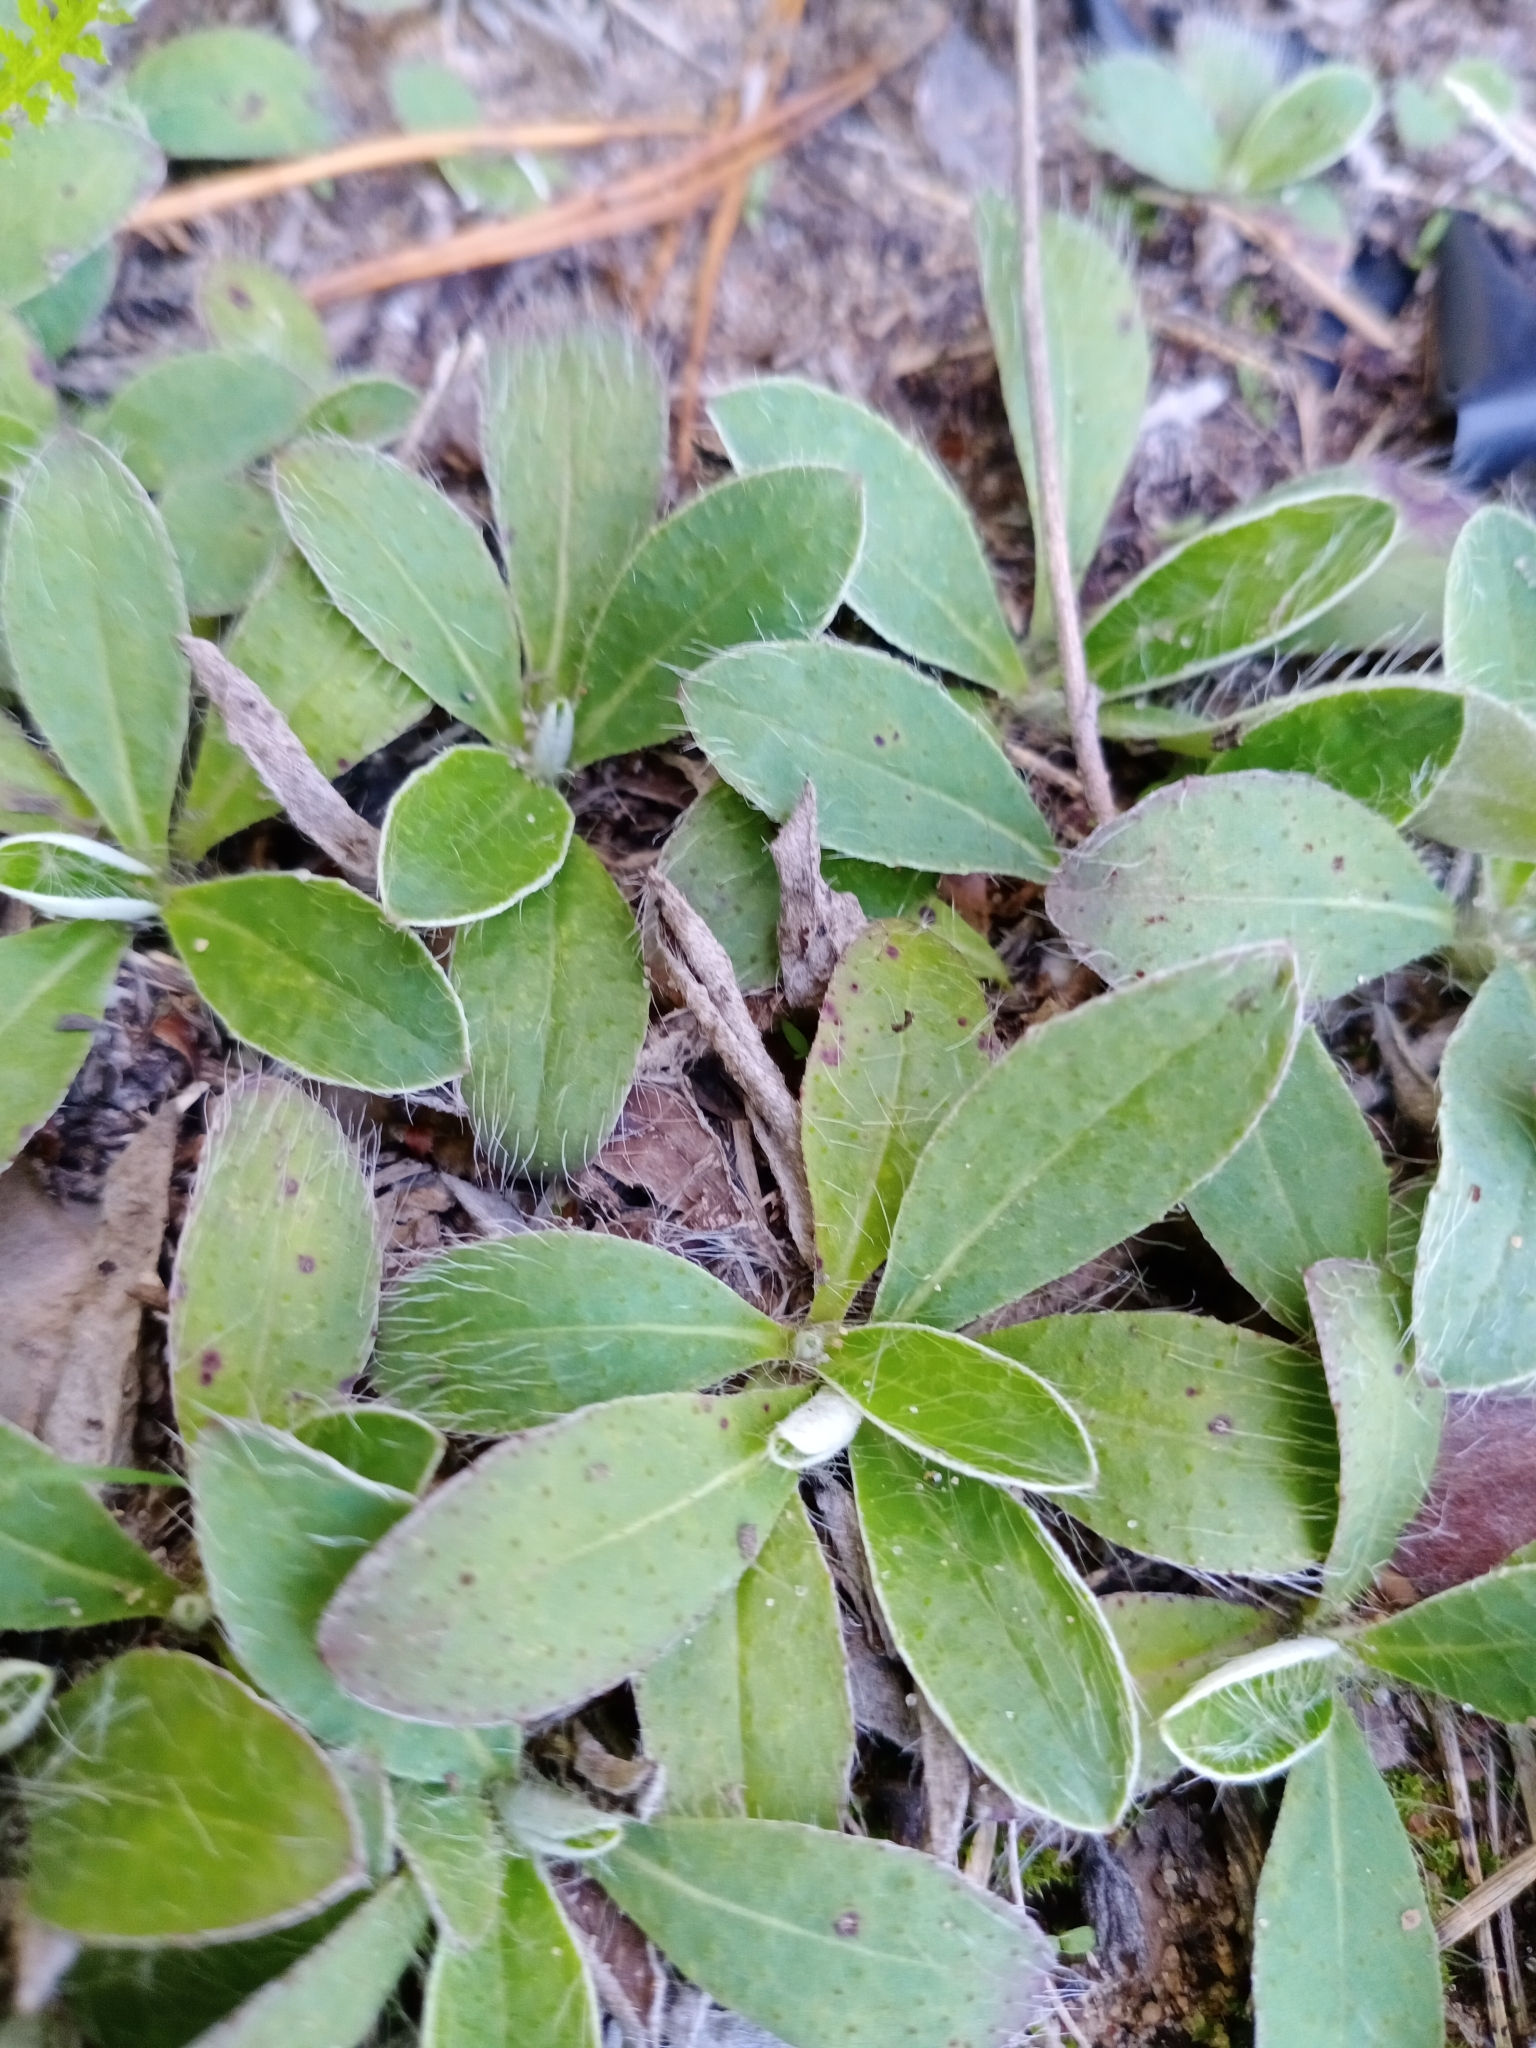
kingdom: Plantae
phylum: Tracheophyta
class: Magnoliopsida
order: Asterales
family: Asteraceae
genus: Pilosella
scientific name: Pilosella officinarum
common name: Mouse-ear hawkweed
